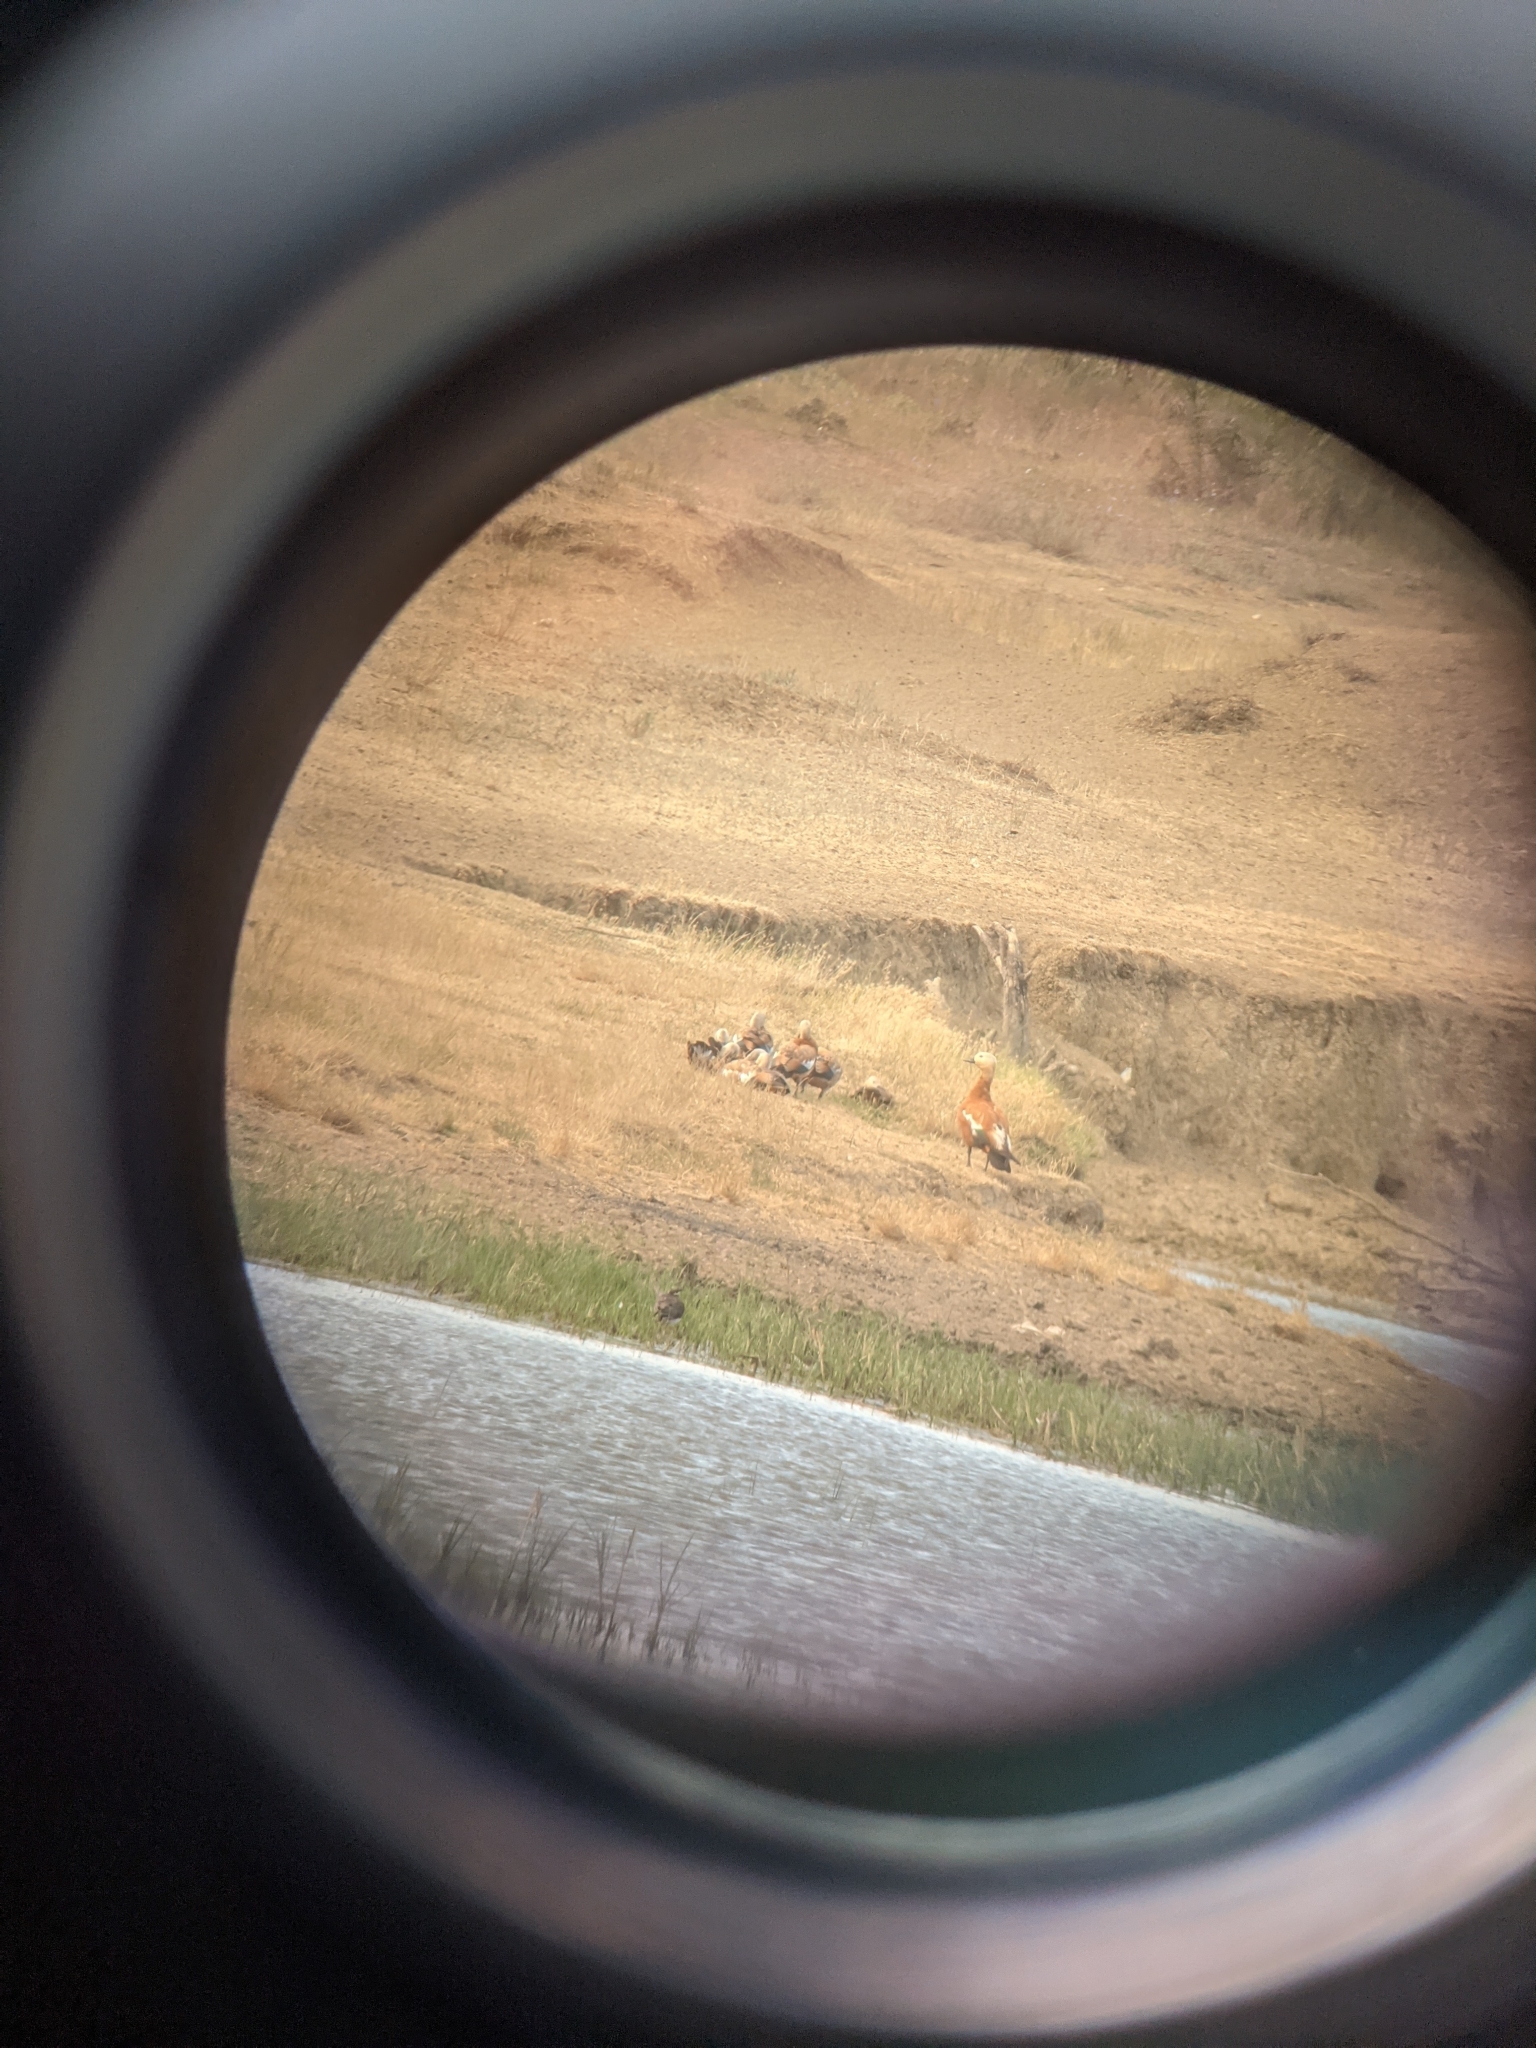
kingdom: Animalia
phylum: Chordata
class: Aves
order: Anseriformes
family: Anatidae
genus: Tadorna
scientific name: Tadorna ferruginea
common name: Ruddy shelduck
